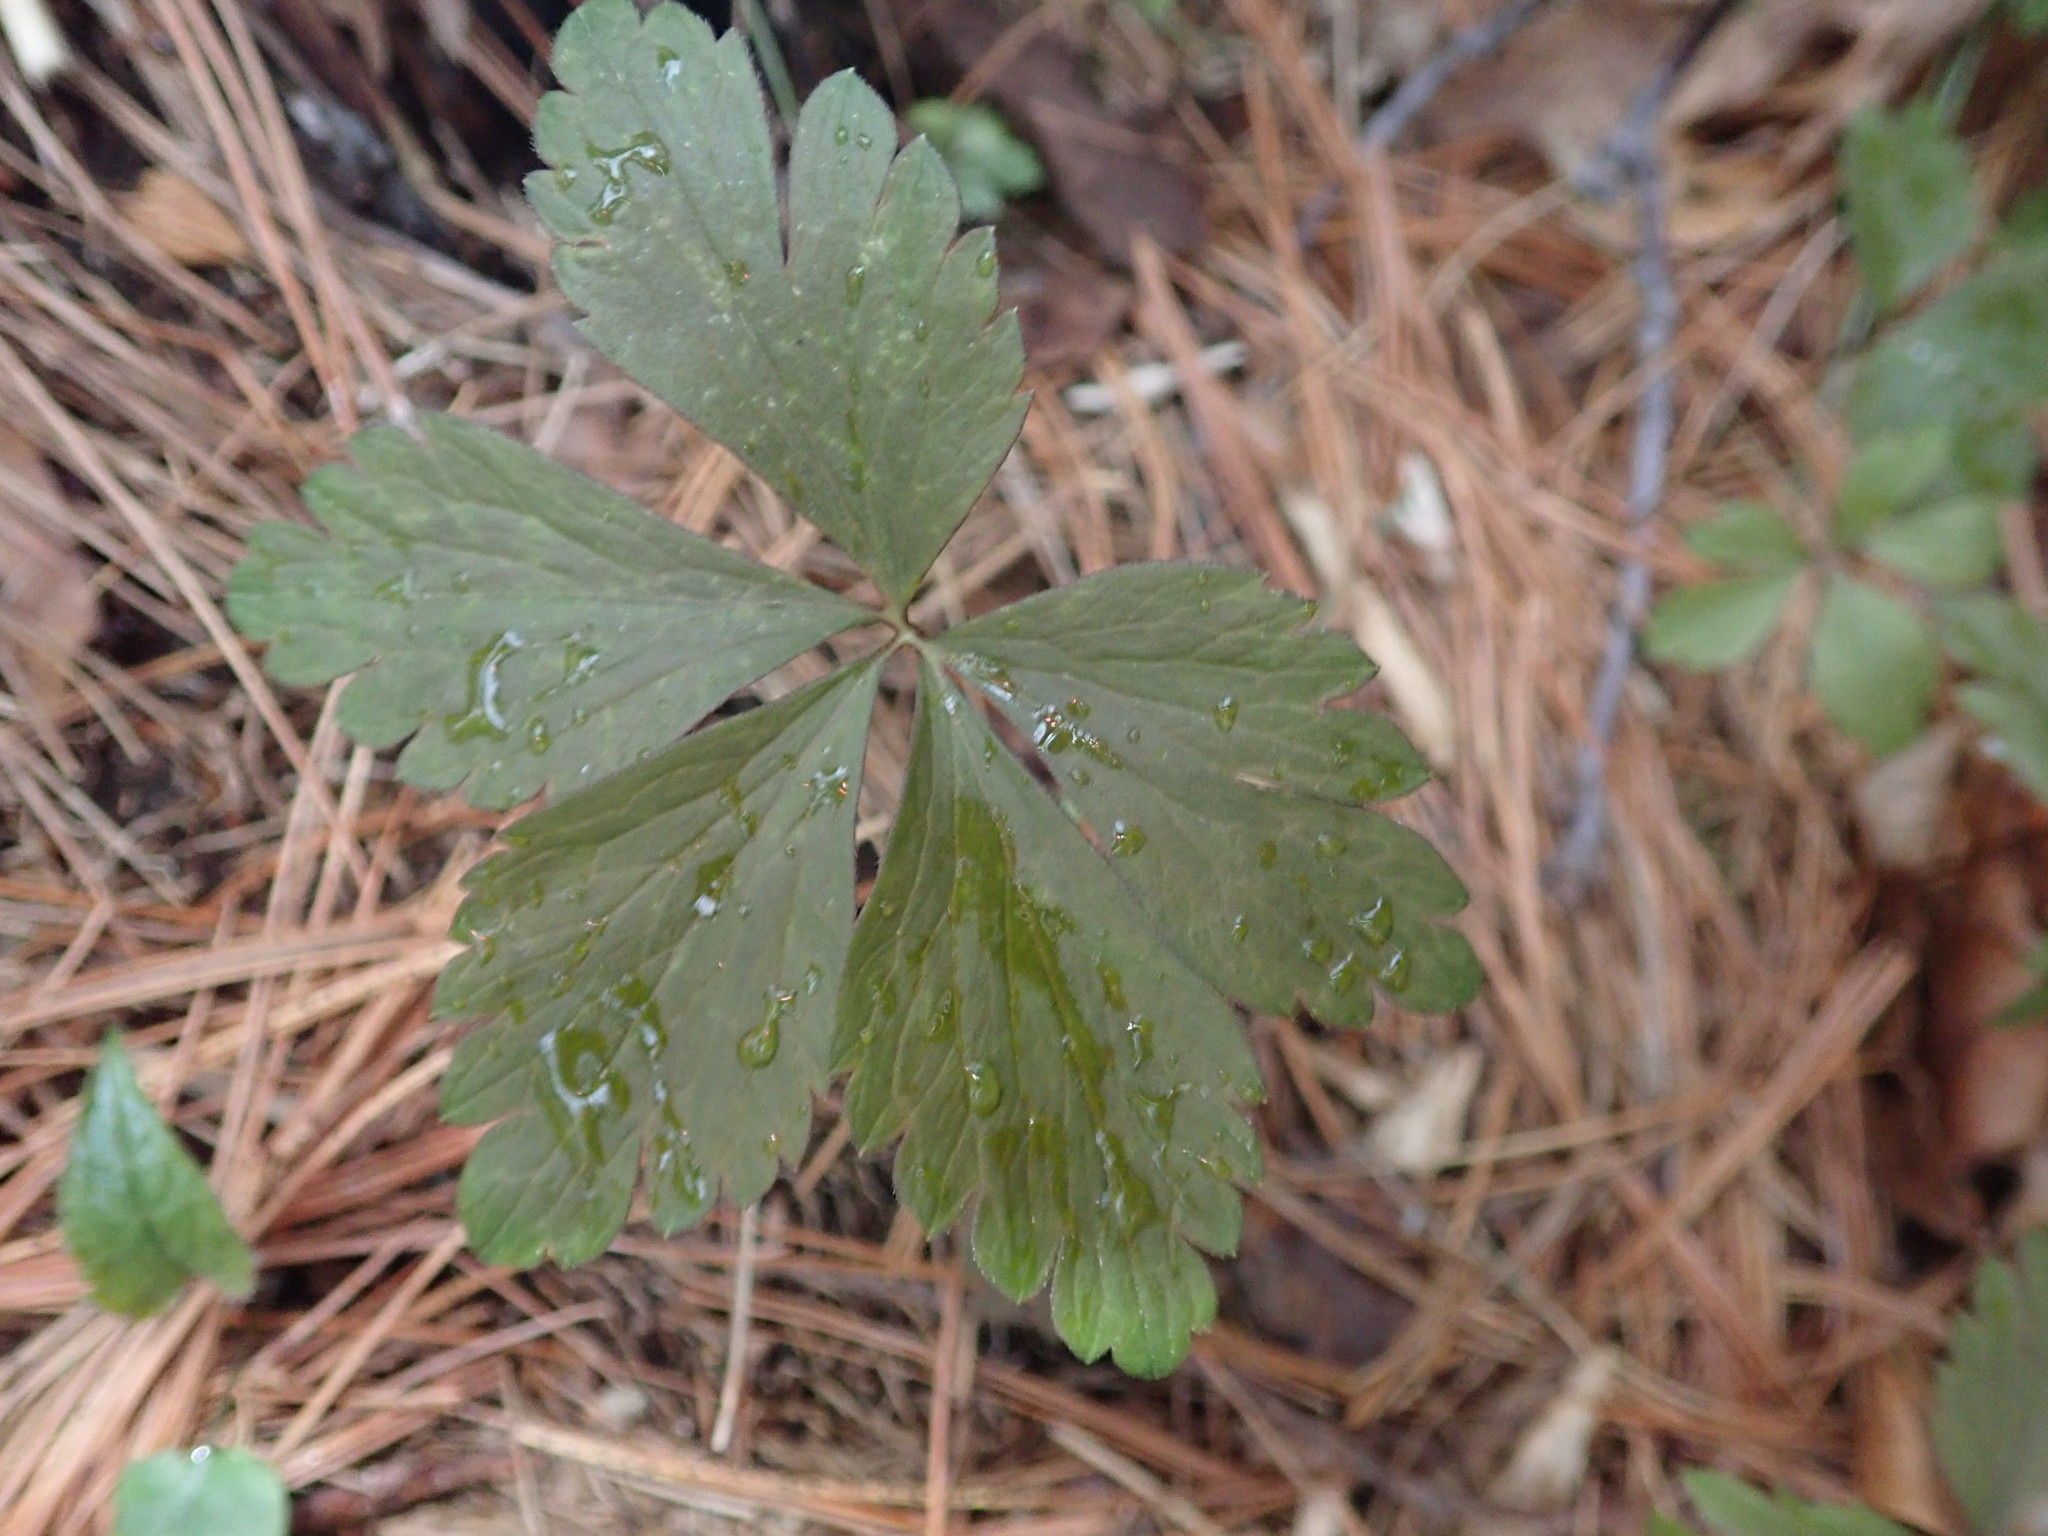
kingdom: Plantae
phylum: Tracheophyta
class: Magnoliopsida
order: Ranunculales
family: Ranunculaceae
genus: Anemone
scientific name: Anemone quinquefolia
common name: Wood anemone
